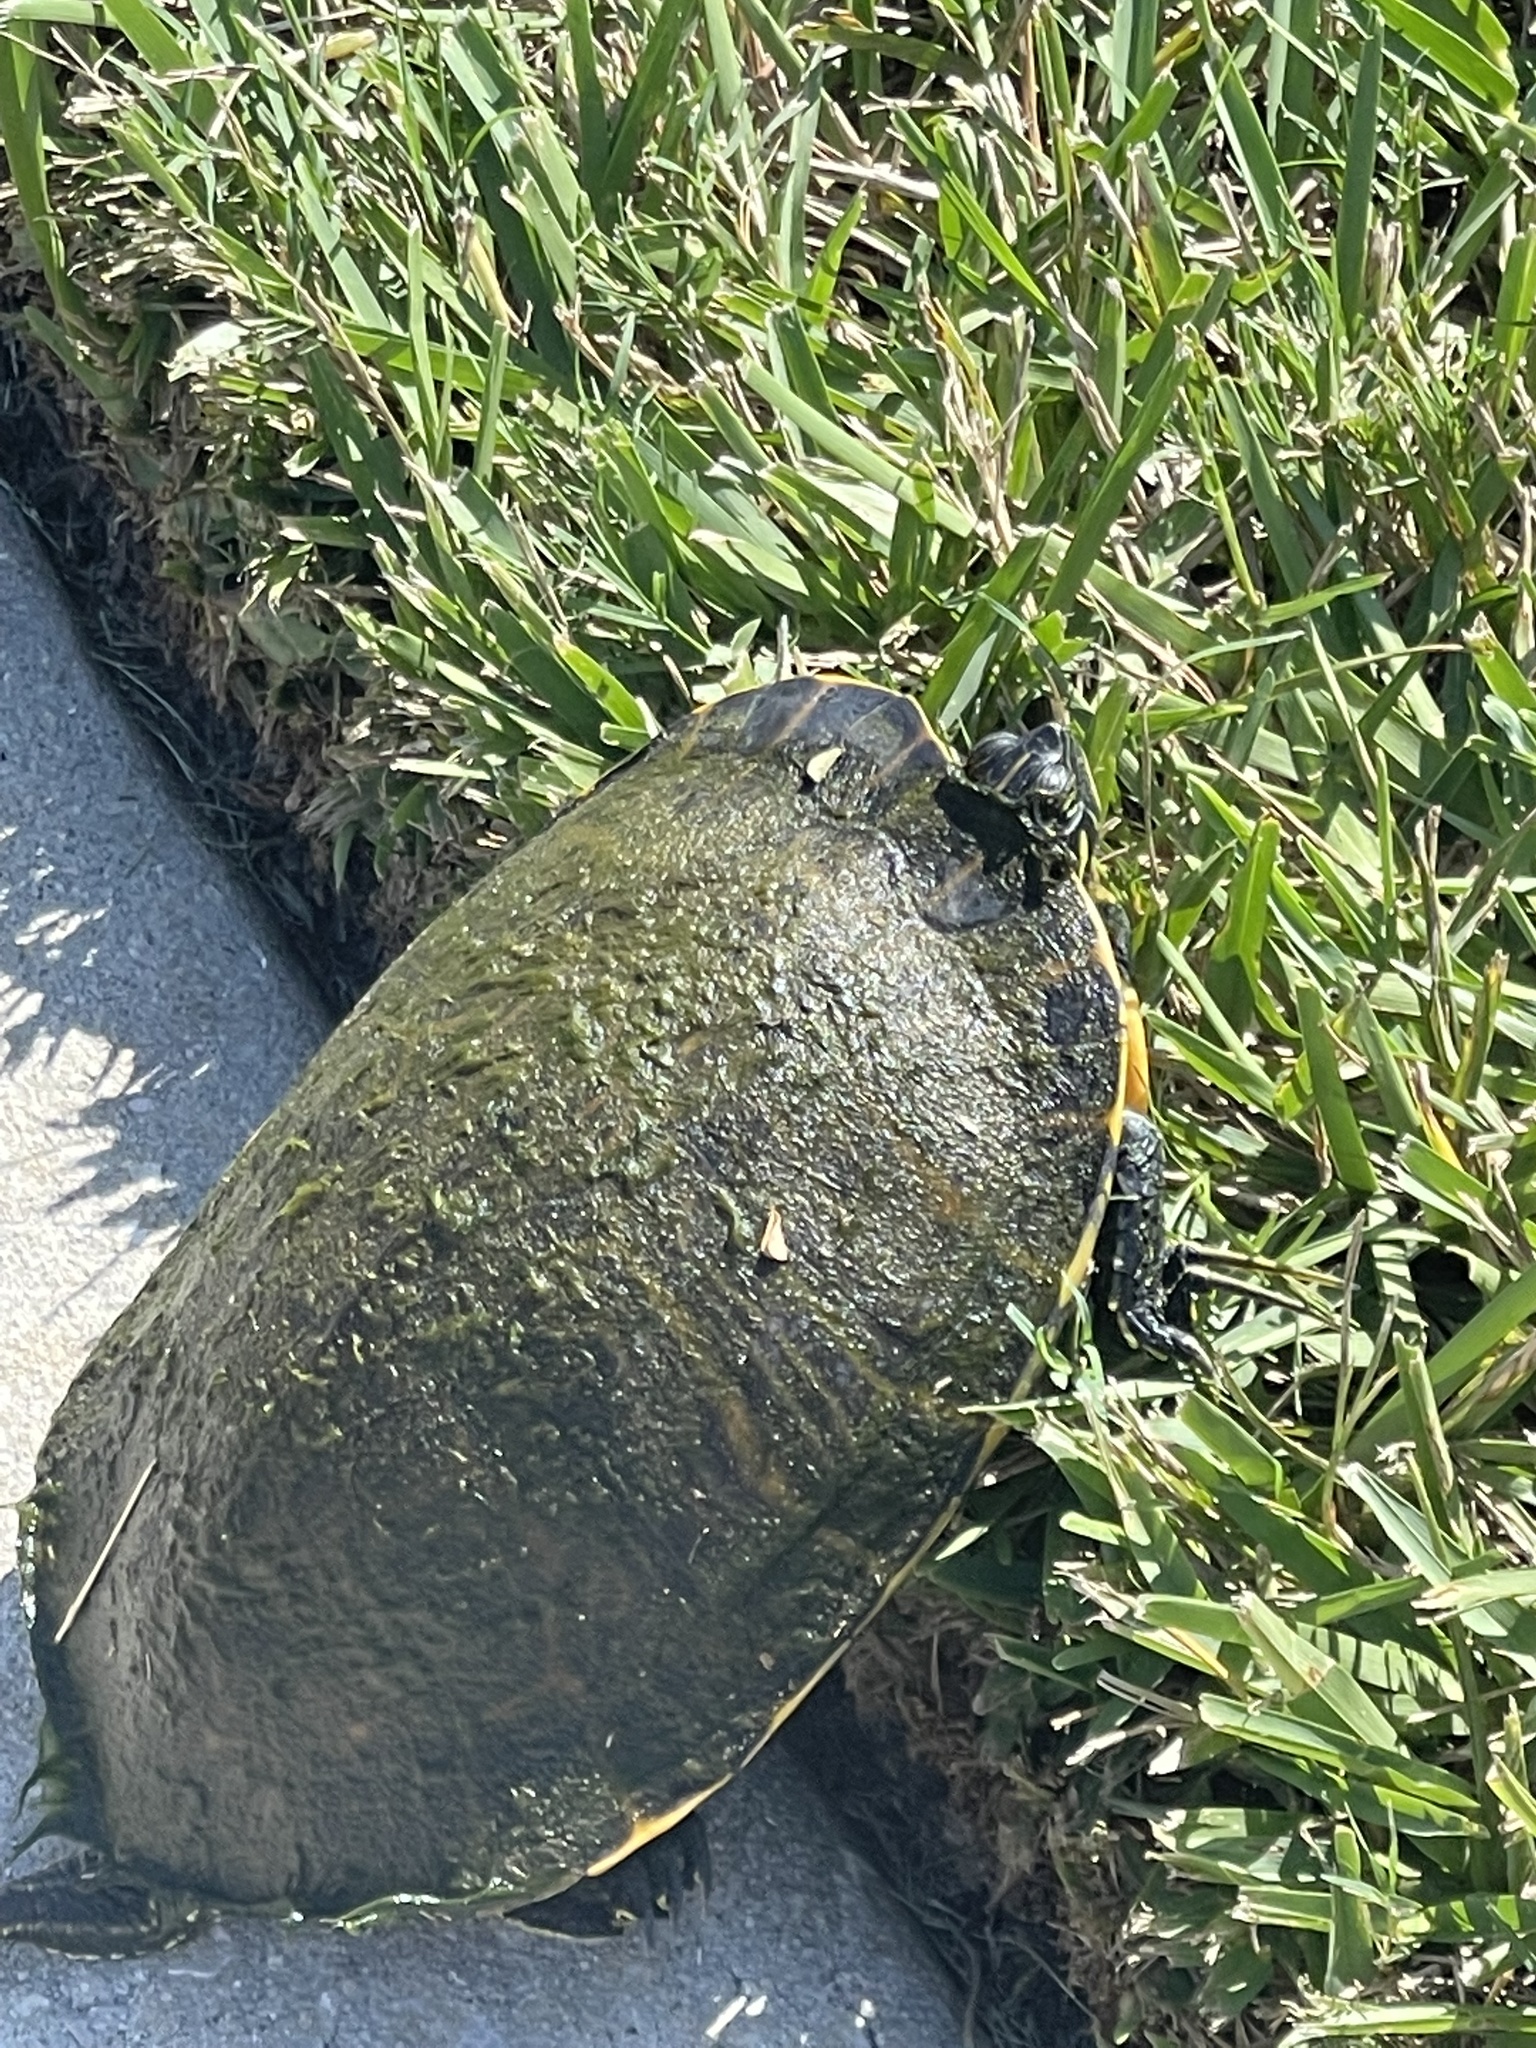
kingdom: Animalia
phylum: Chordata
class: Testudines
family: Emydidae
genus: Pseudemys
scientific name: Pseudemys peninsularis
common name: Peninsula cooter
